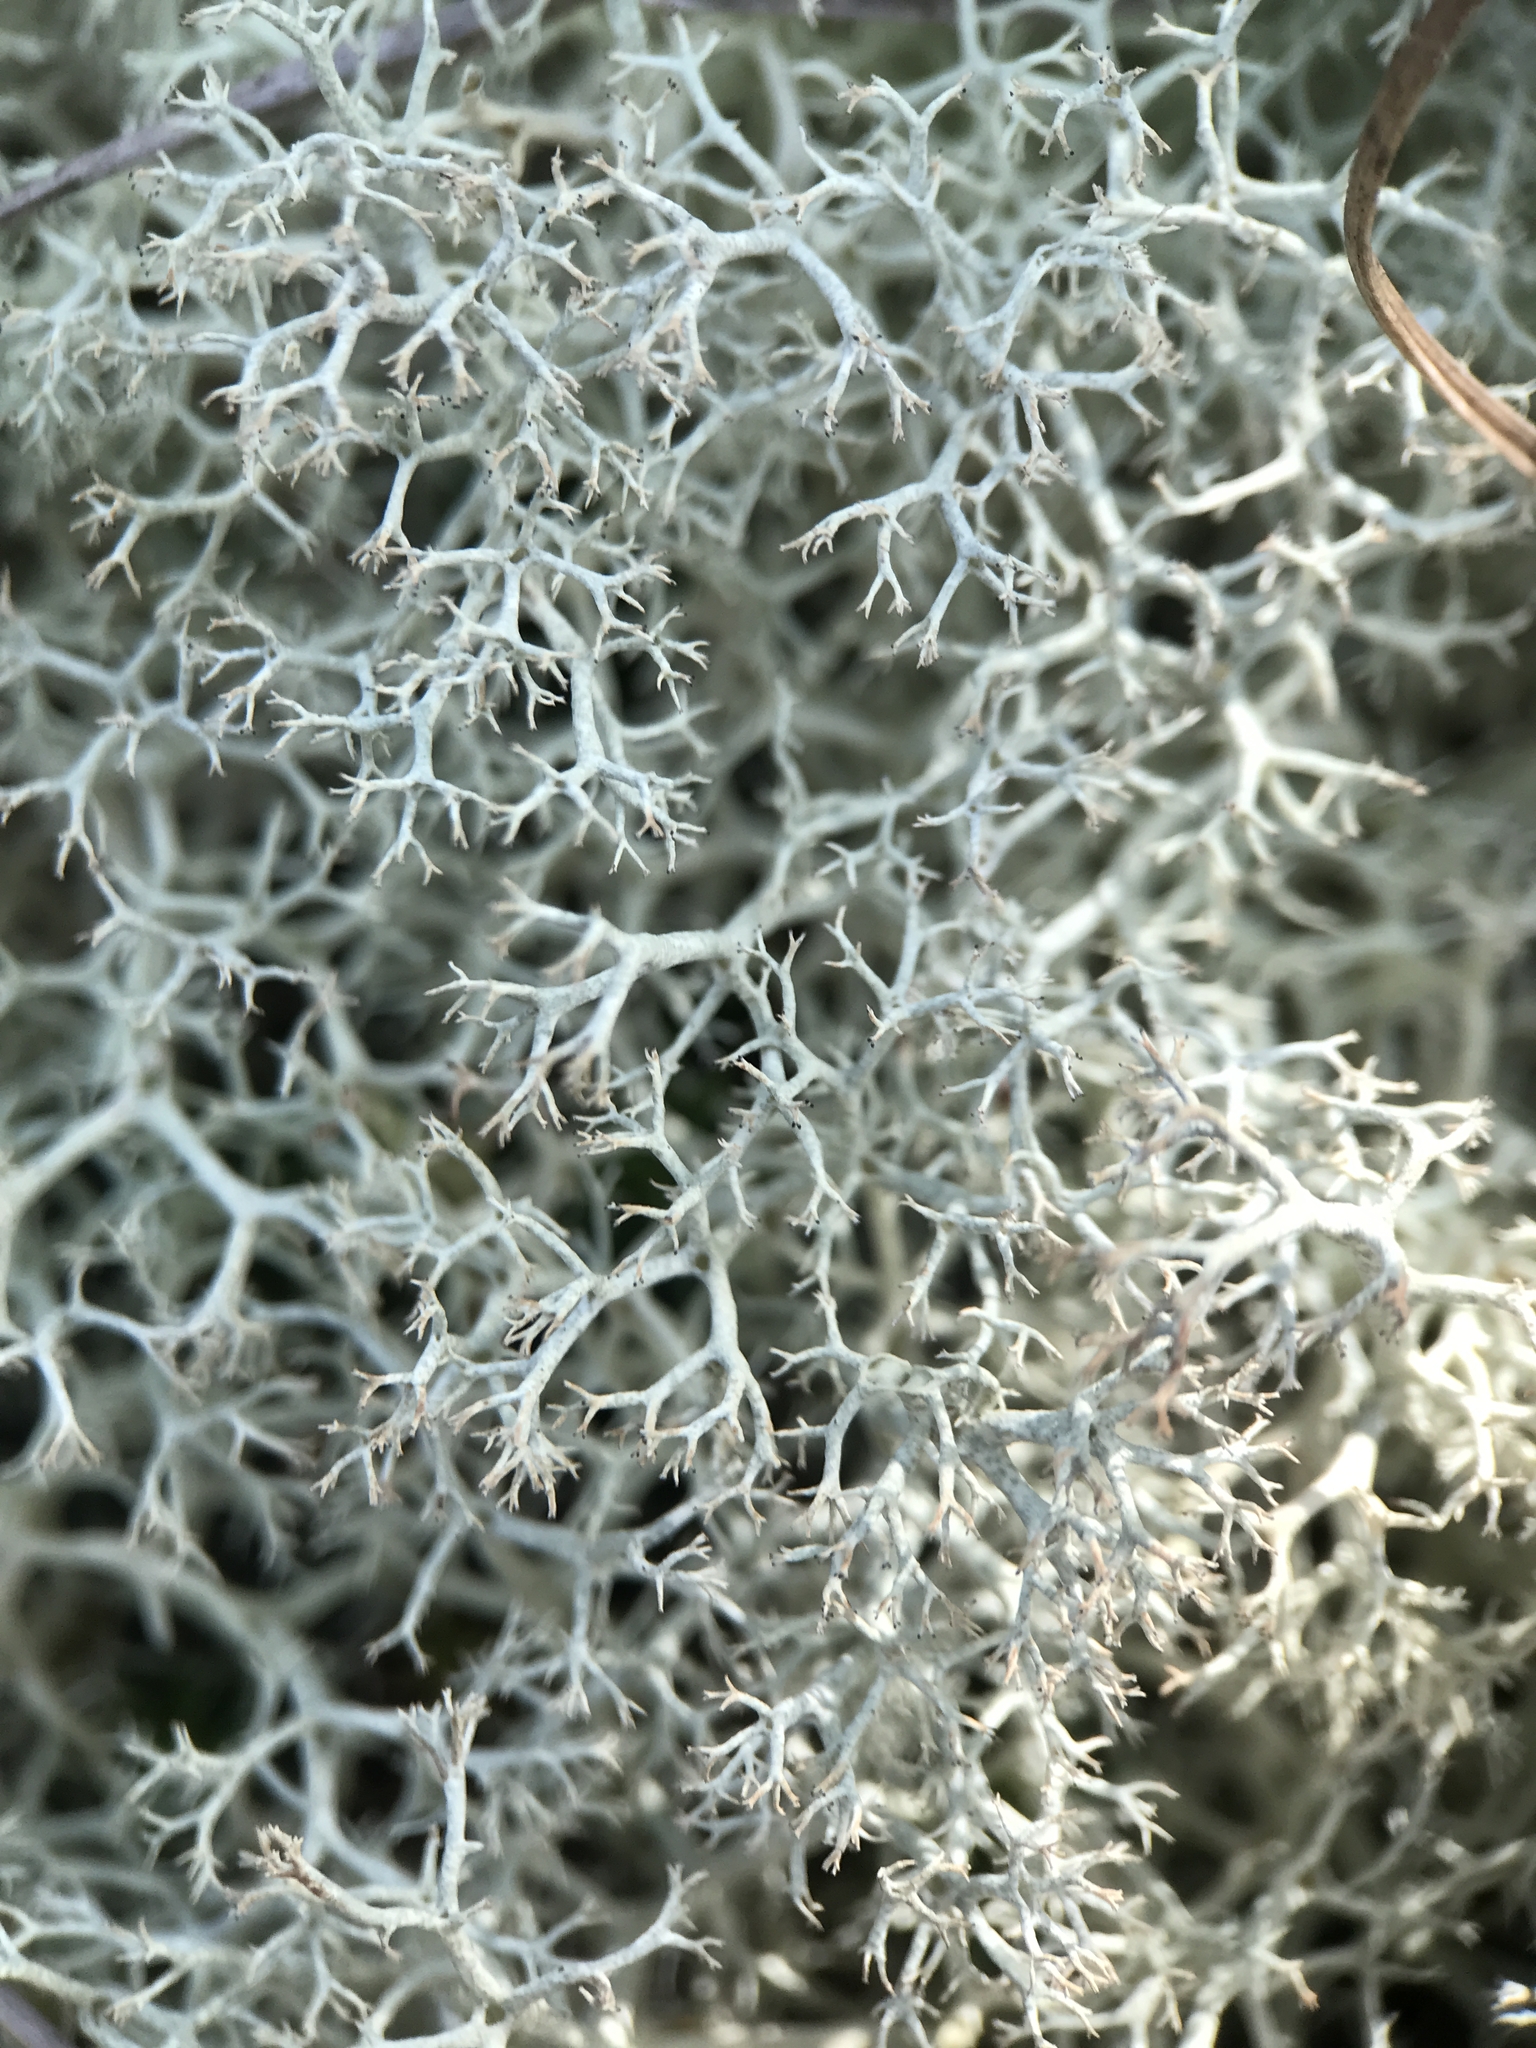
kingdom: Fungi
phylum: Ascomycota
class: Lecanoromycetes
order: Lecanorales
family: Cladoniaceae
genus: Cladonia
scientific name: Cladonia portentosa
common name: Reindeer lichen
